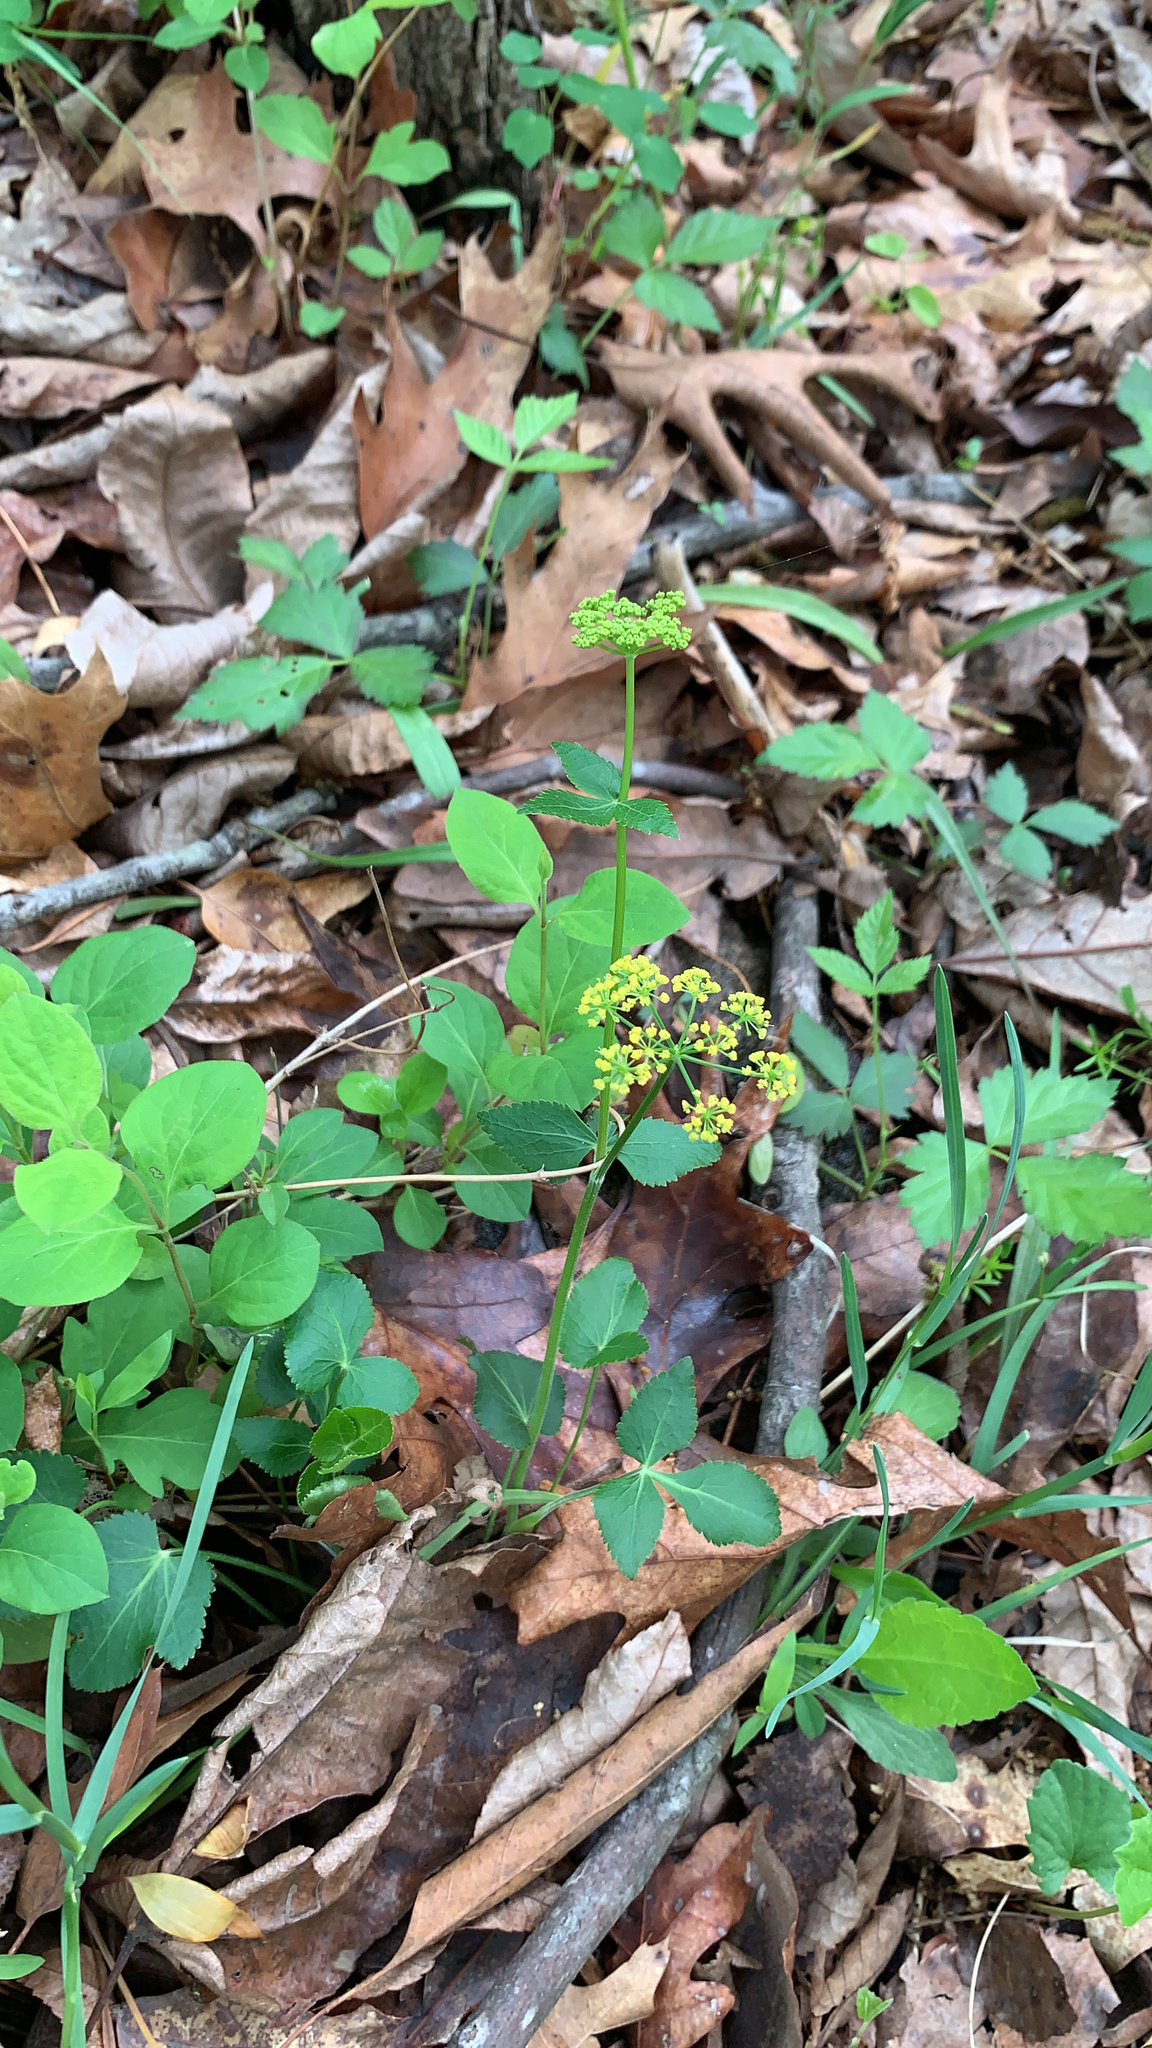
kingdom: Plantae
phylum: Tracheophyta
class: Magnoliopsida
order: Apiales
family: Apiaceae
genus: Zizia
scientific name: Zizia aptera
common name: Heart-leaved alexanders
